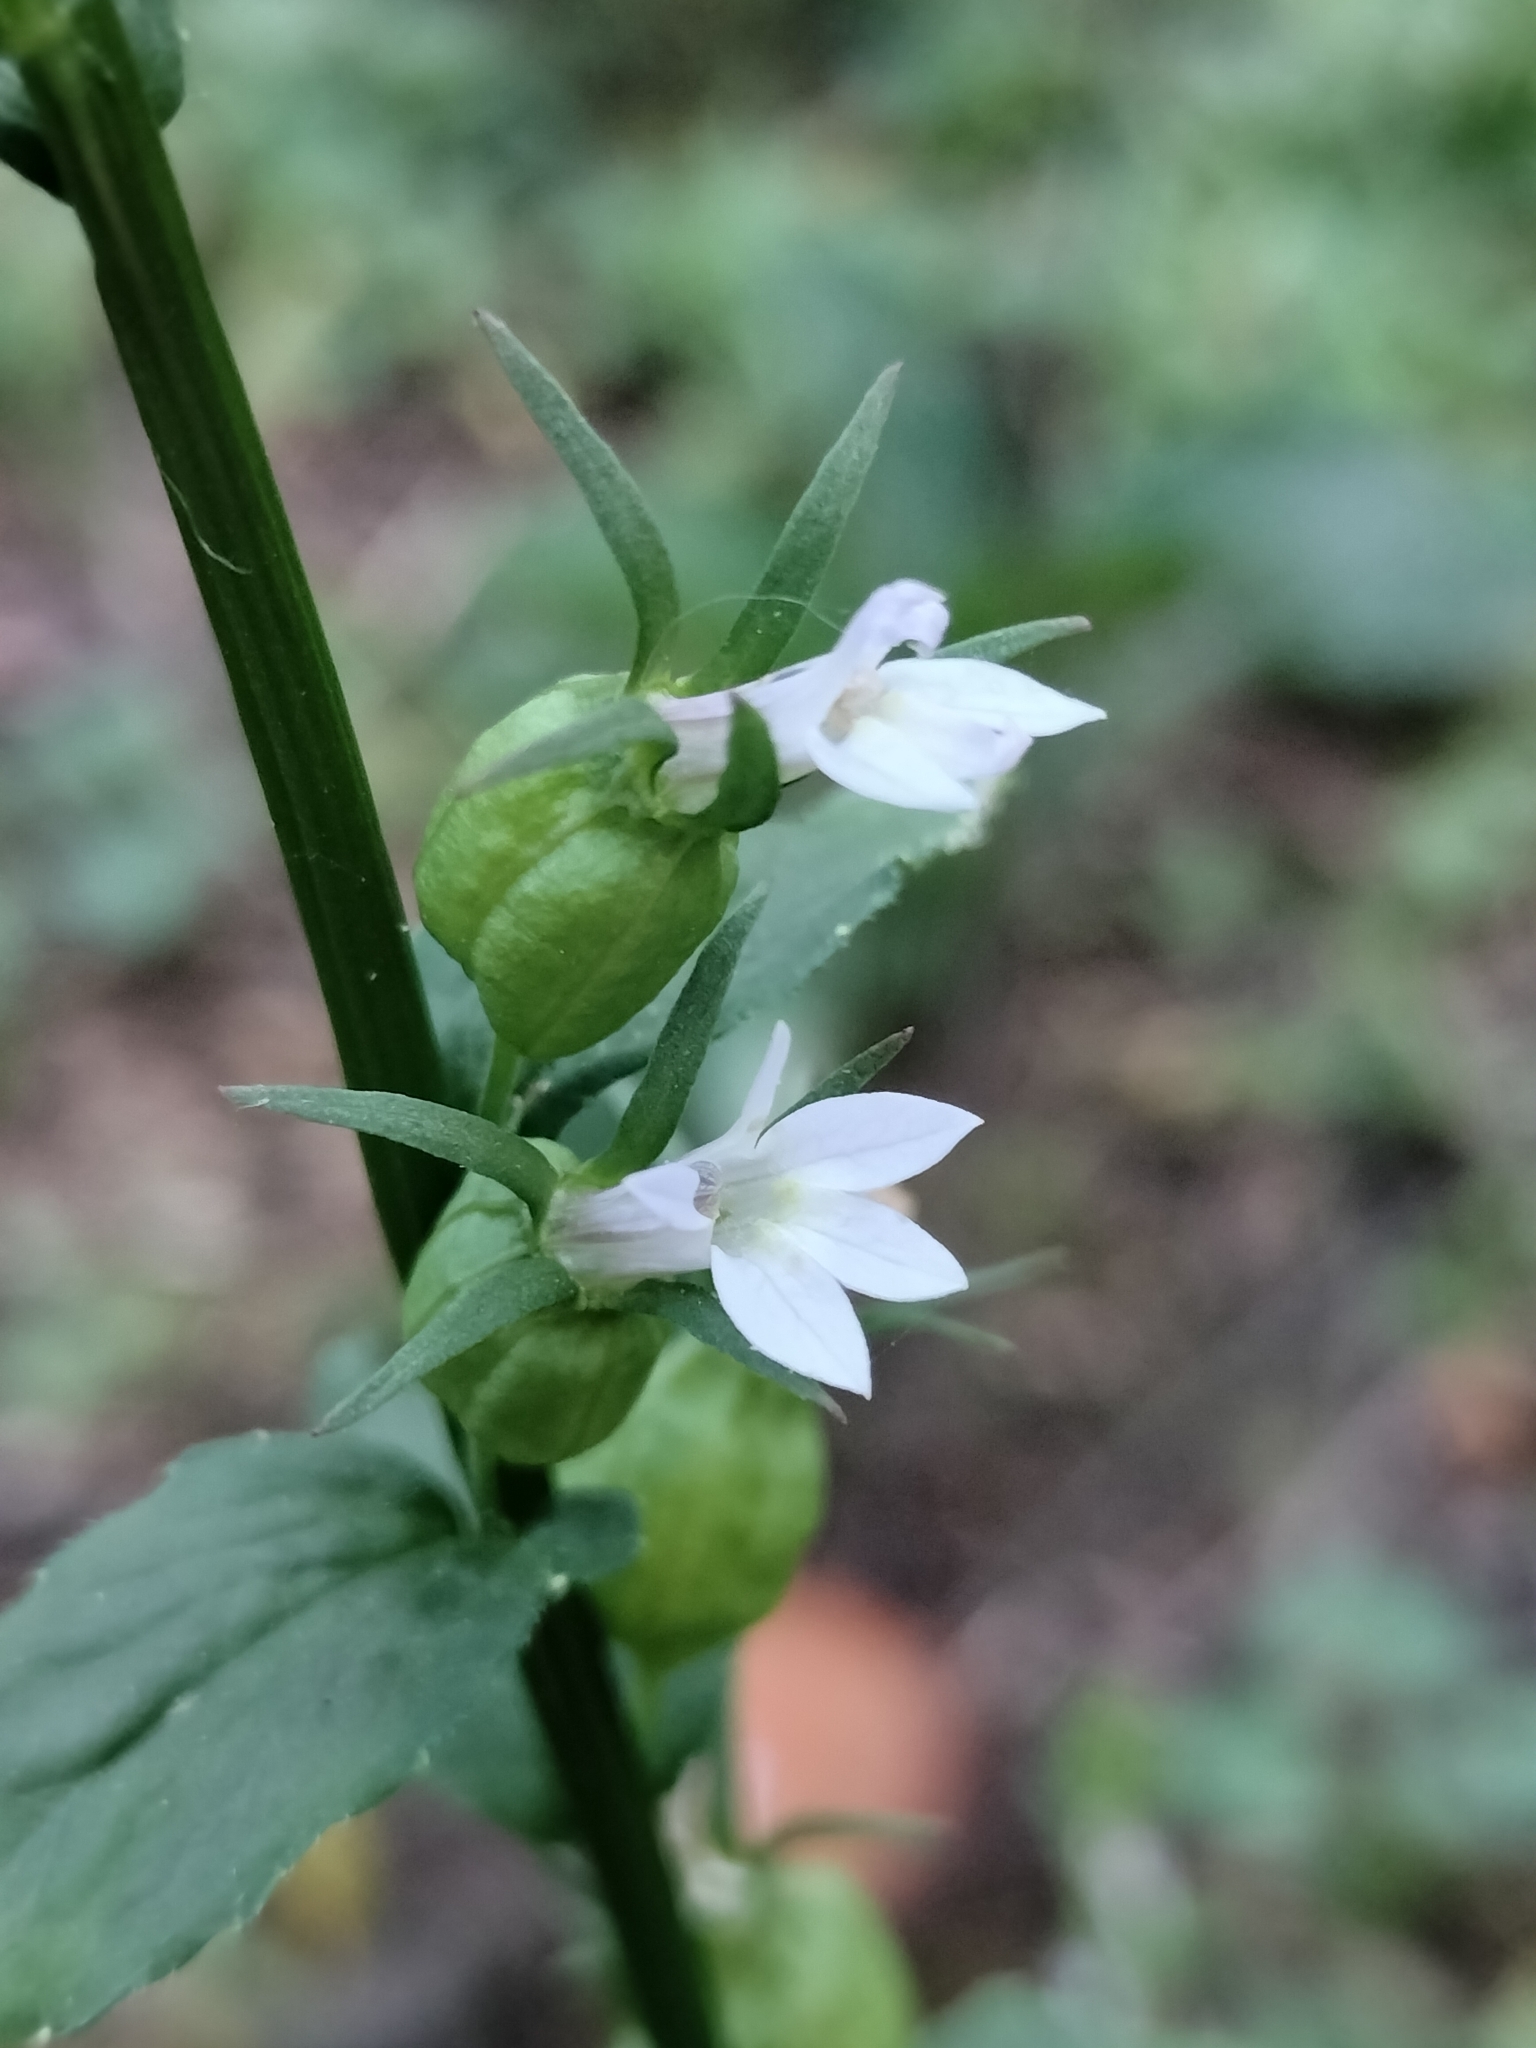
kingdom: Plantae
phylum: Tracheophyta
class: Magnoliopsida
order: Asterales
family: Campanulaceae
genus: Lobelia
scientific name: Lobelia inflata
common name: Indian tobacco
